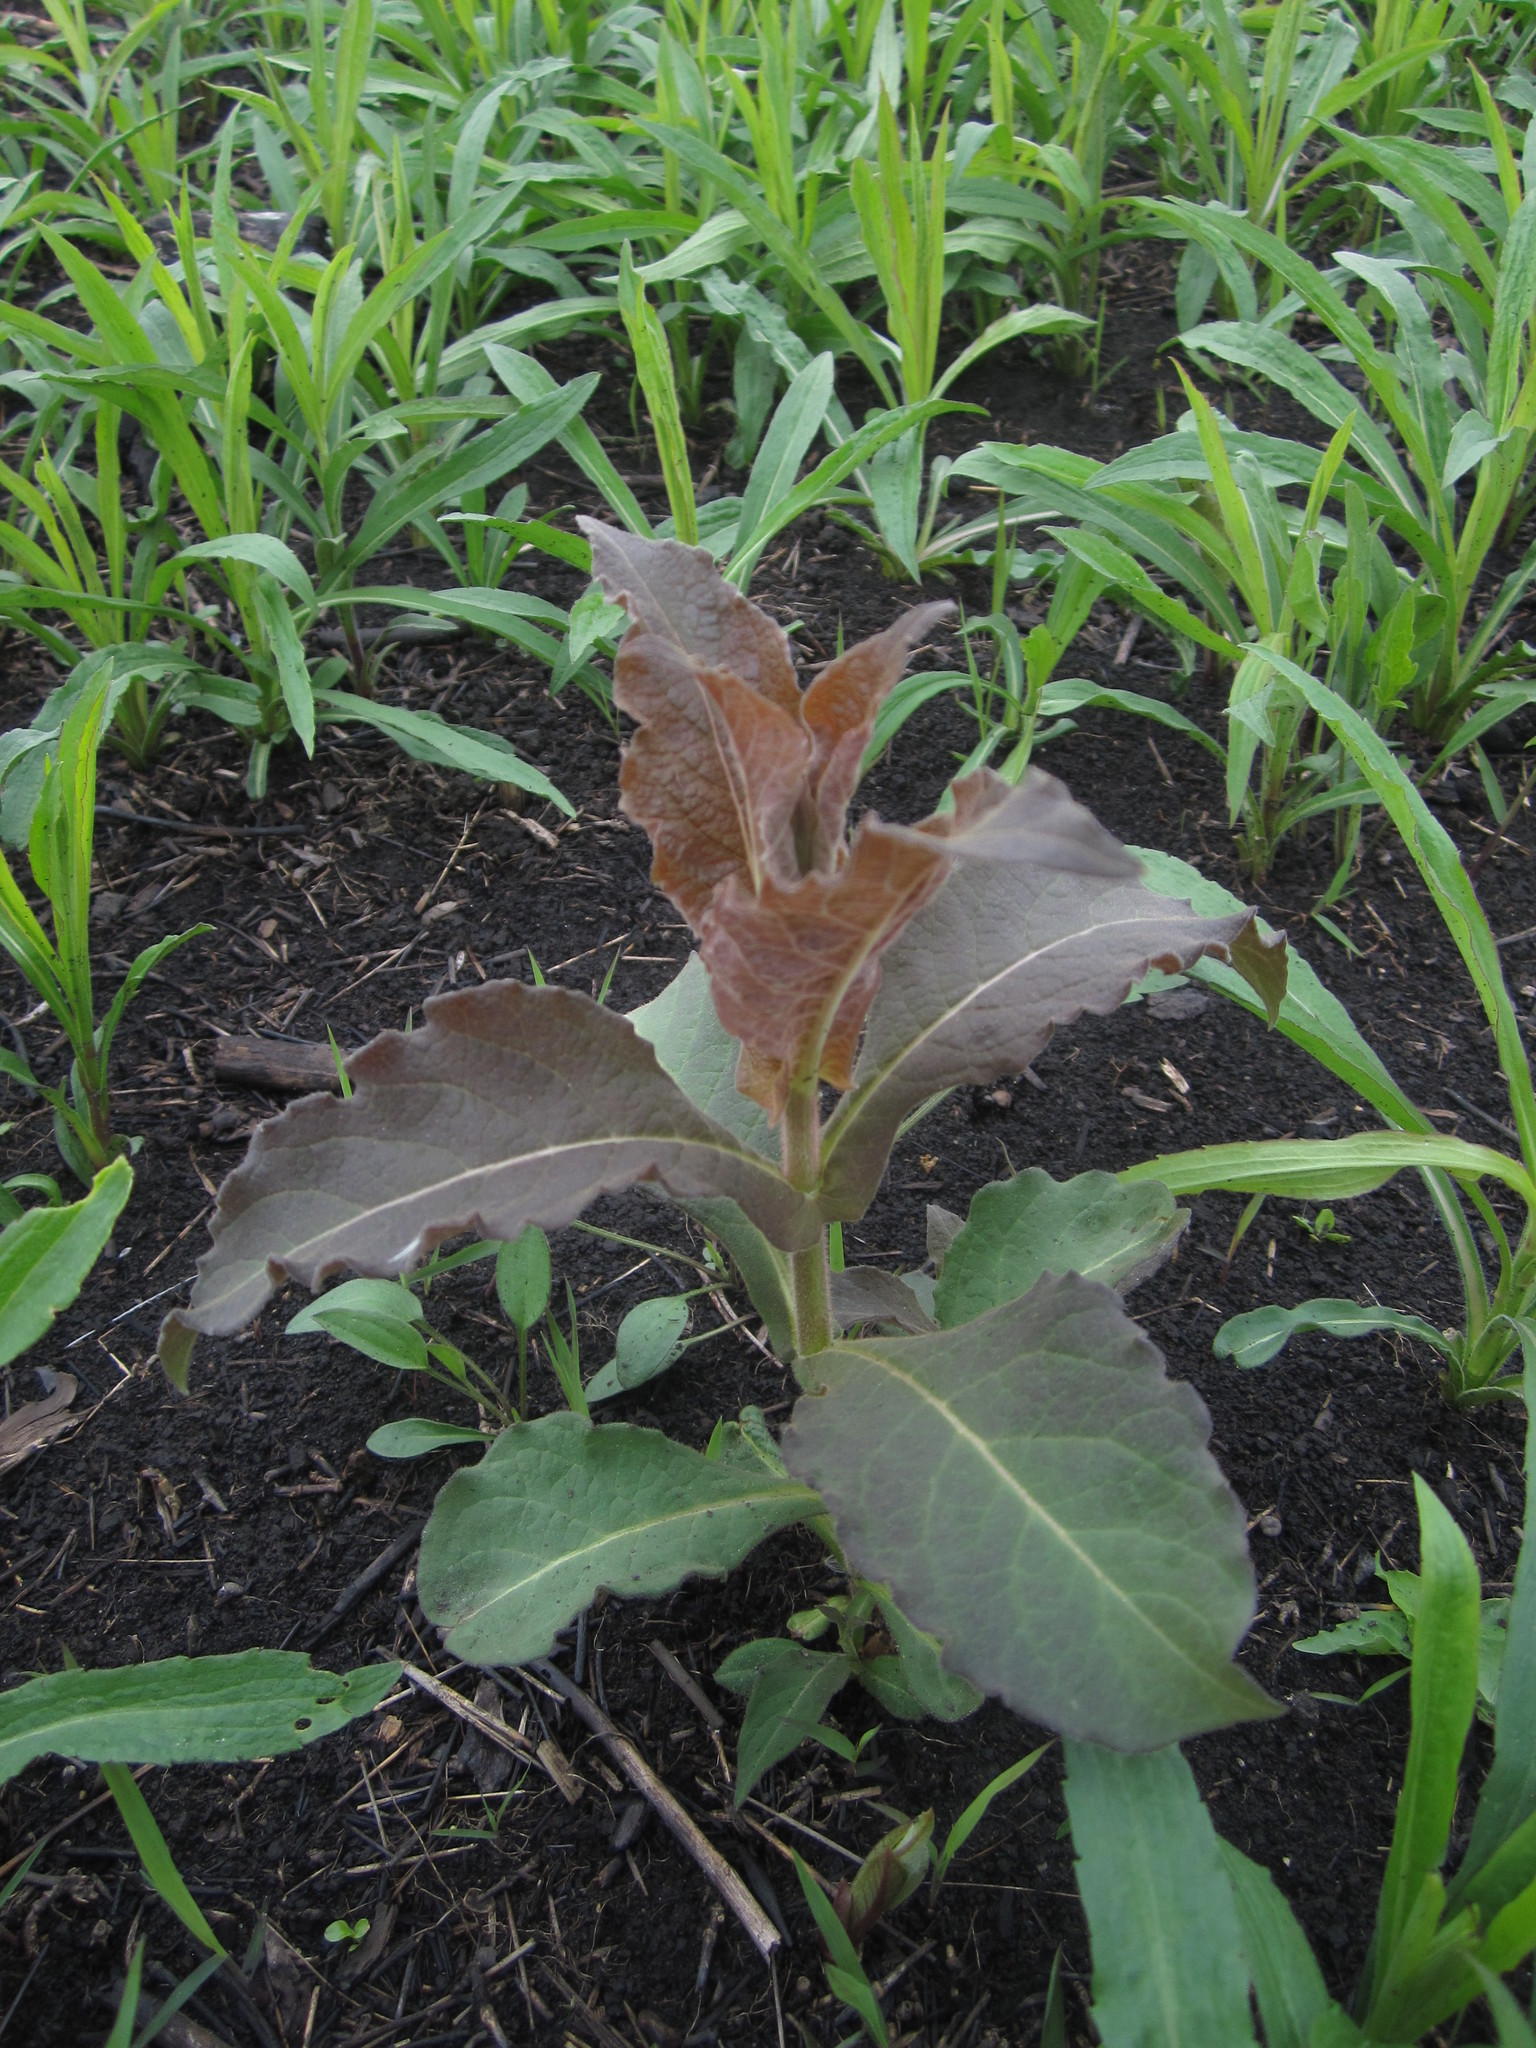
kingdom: Plantae
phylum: Tracheophyta
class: Magnoliopsida
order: Dipsacales
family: Caprifoliaceae
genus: Triosteum
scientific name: Triosteum aurantiacum
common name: Coffee tinker's-weed
